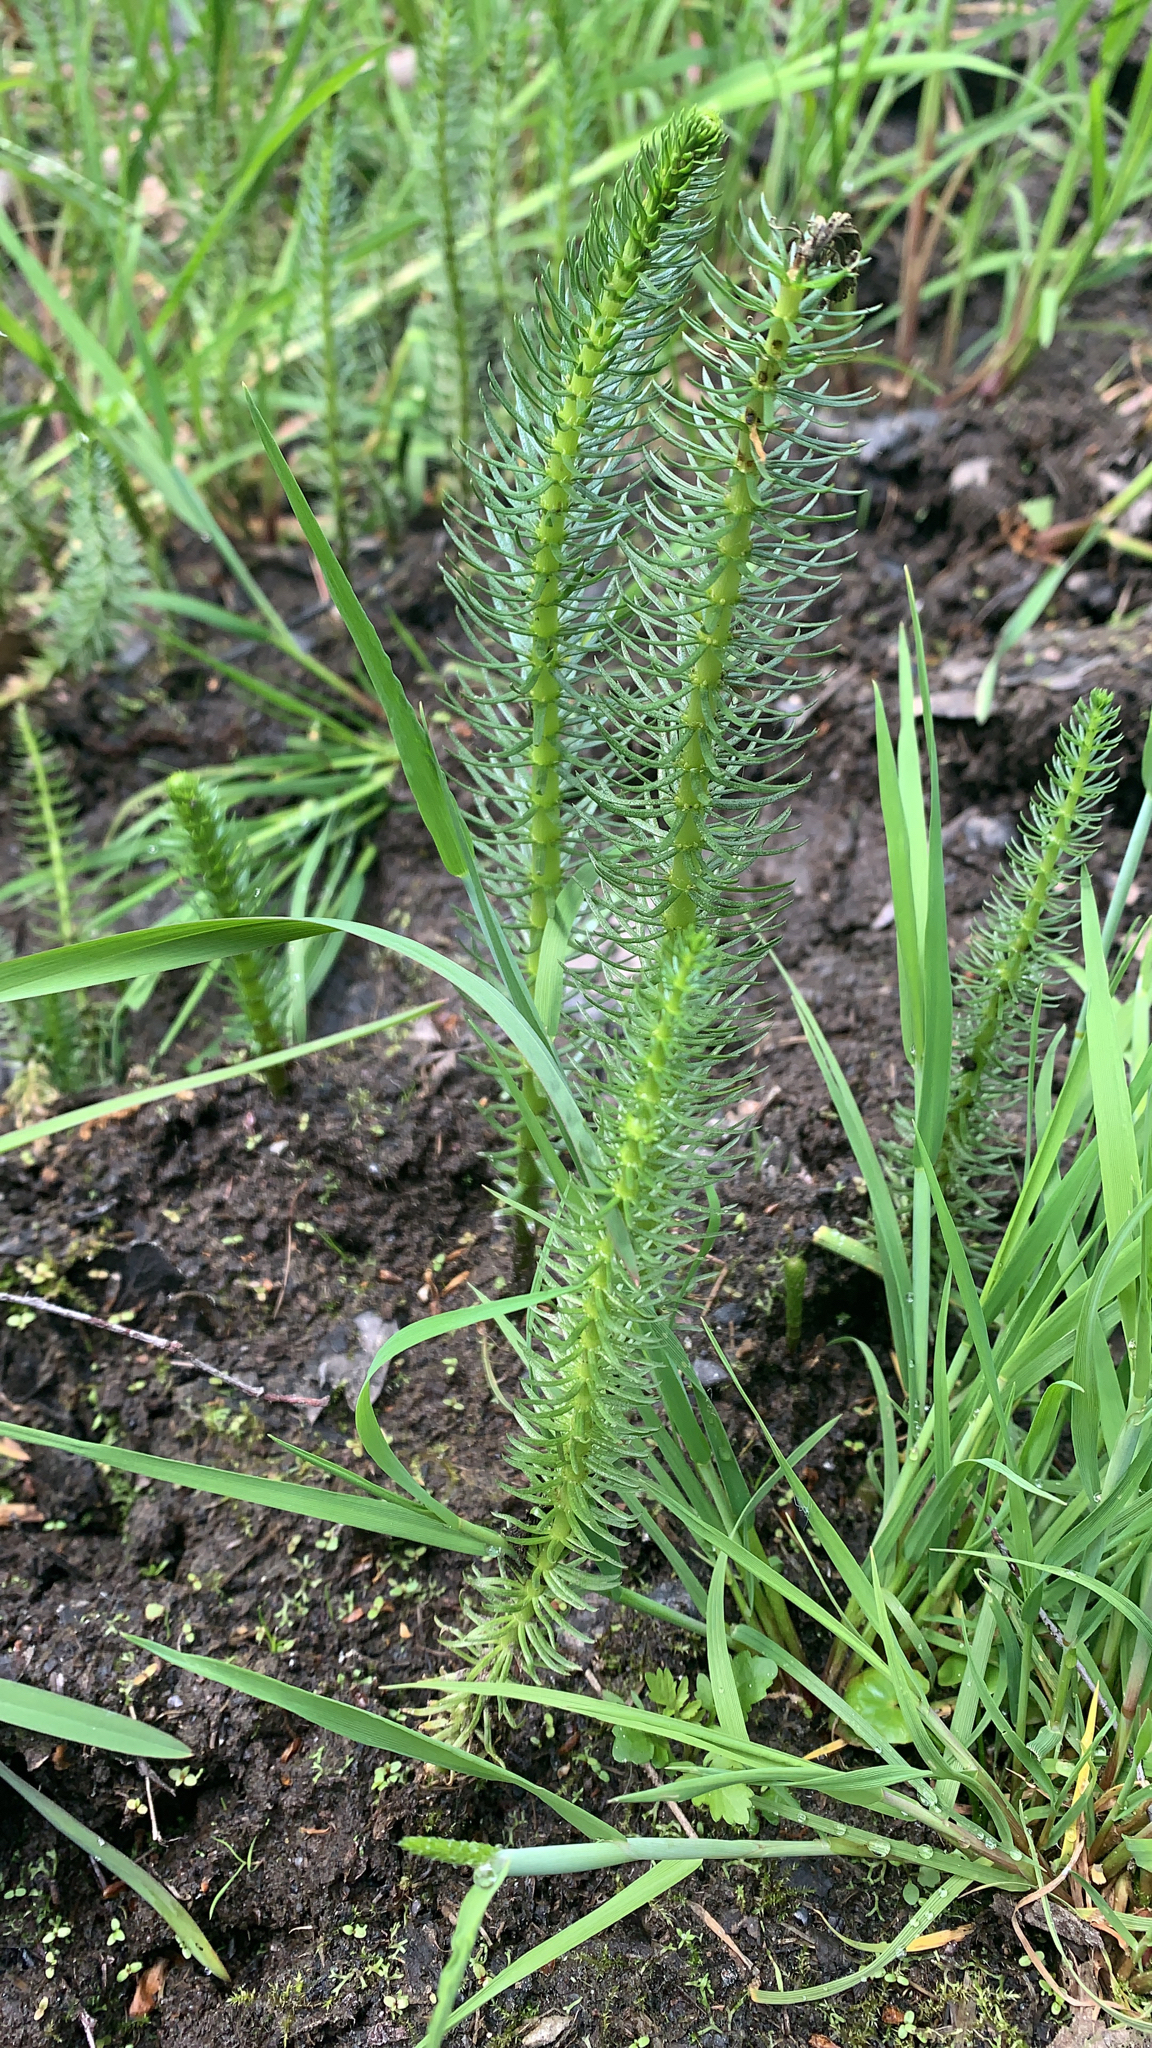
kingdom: Plantae
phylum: Tracheophyta
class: Magnoliopsida
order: Lamiales
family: Plantaginaceae
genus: Hippuris
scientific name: Hippuris vulgaris
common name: Mare's-tail
